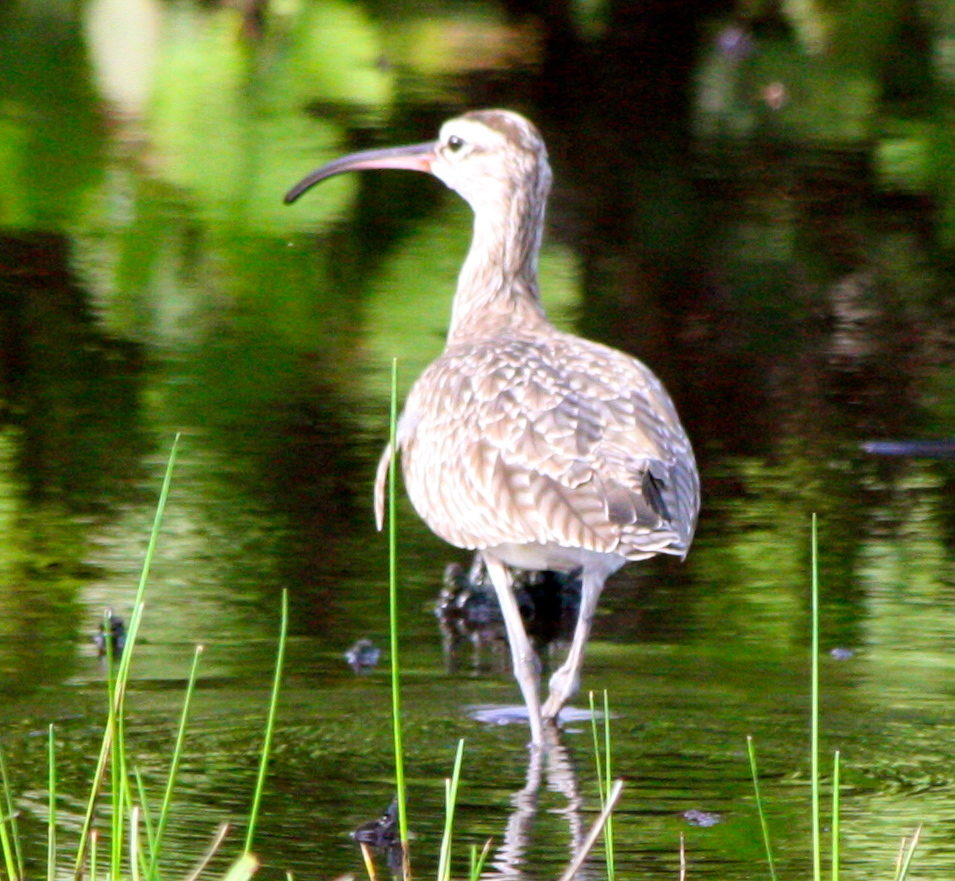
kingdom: Animalia
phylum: Chordata
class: Aves
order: Charadriiformes
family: Scolopacidae
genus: Numenius
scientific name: Numenius phaeopus
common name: Whimbrel
